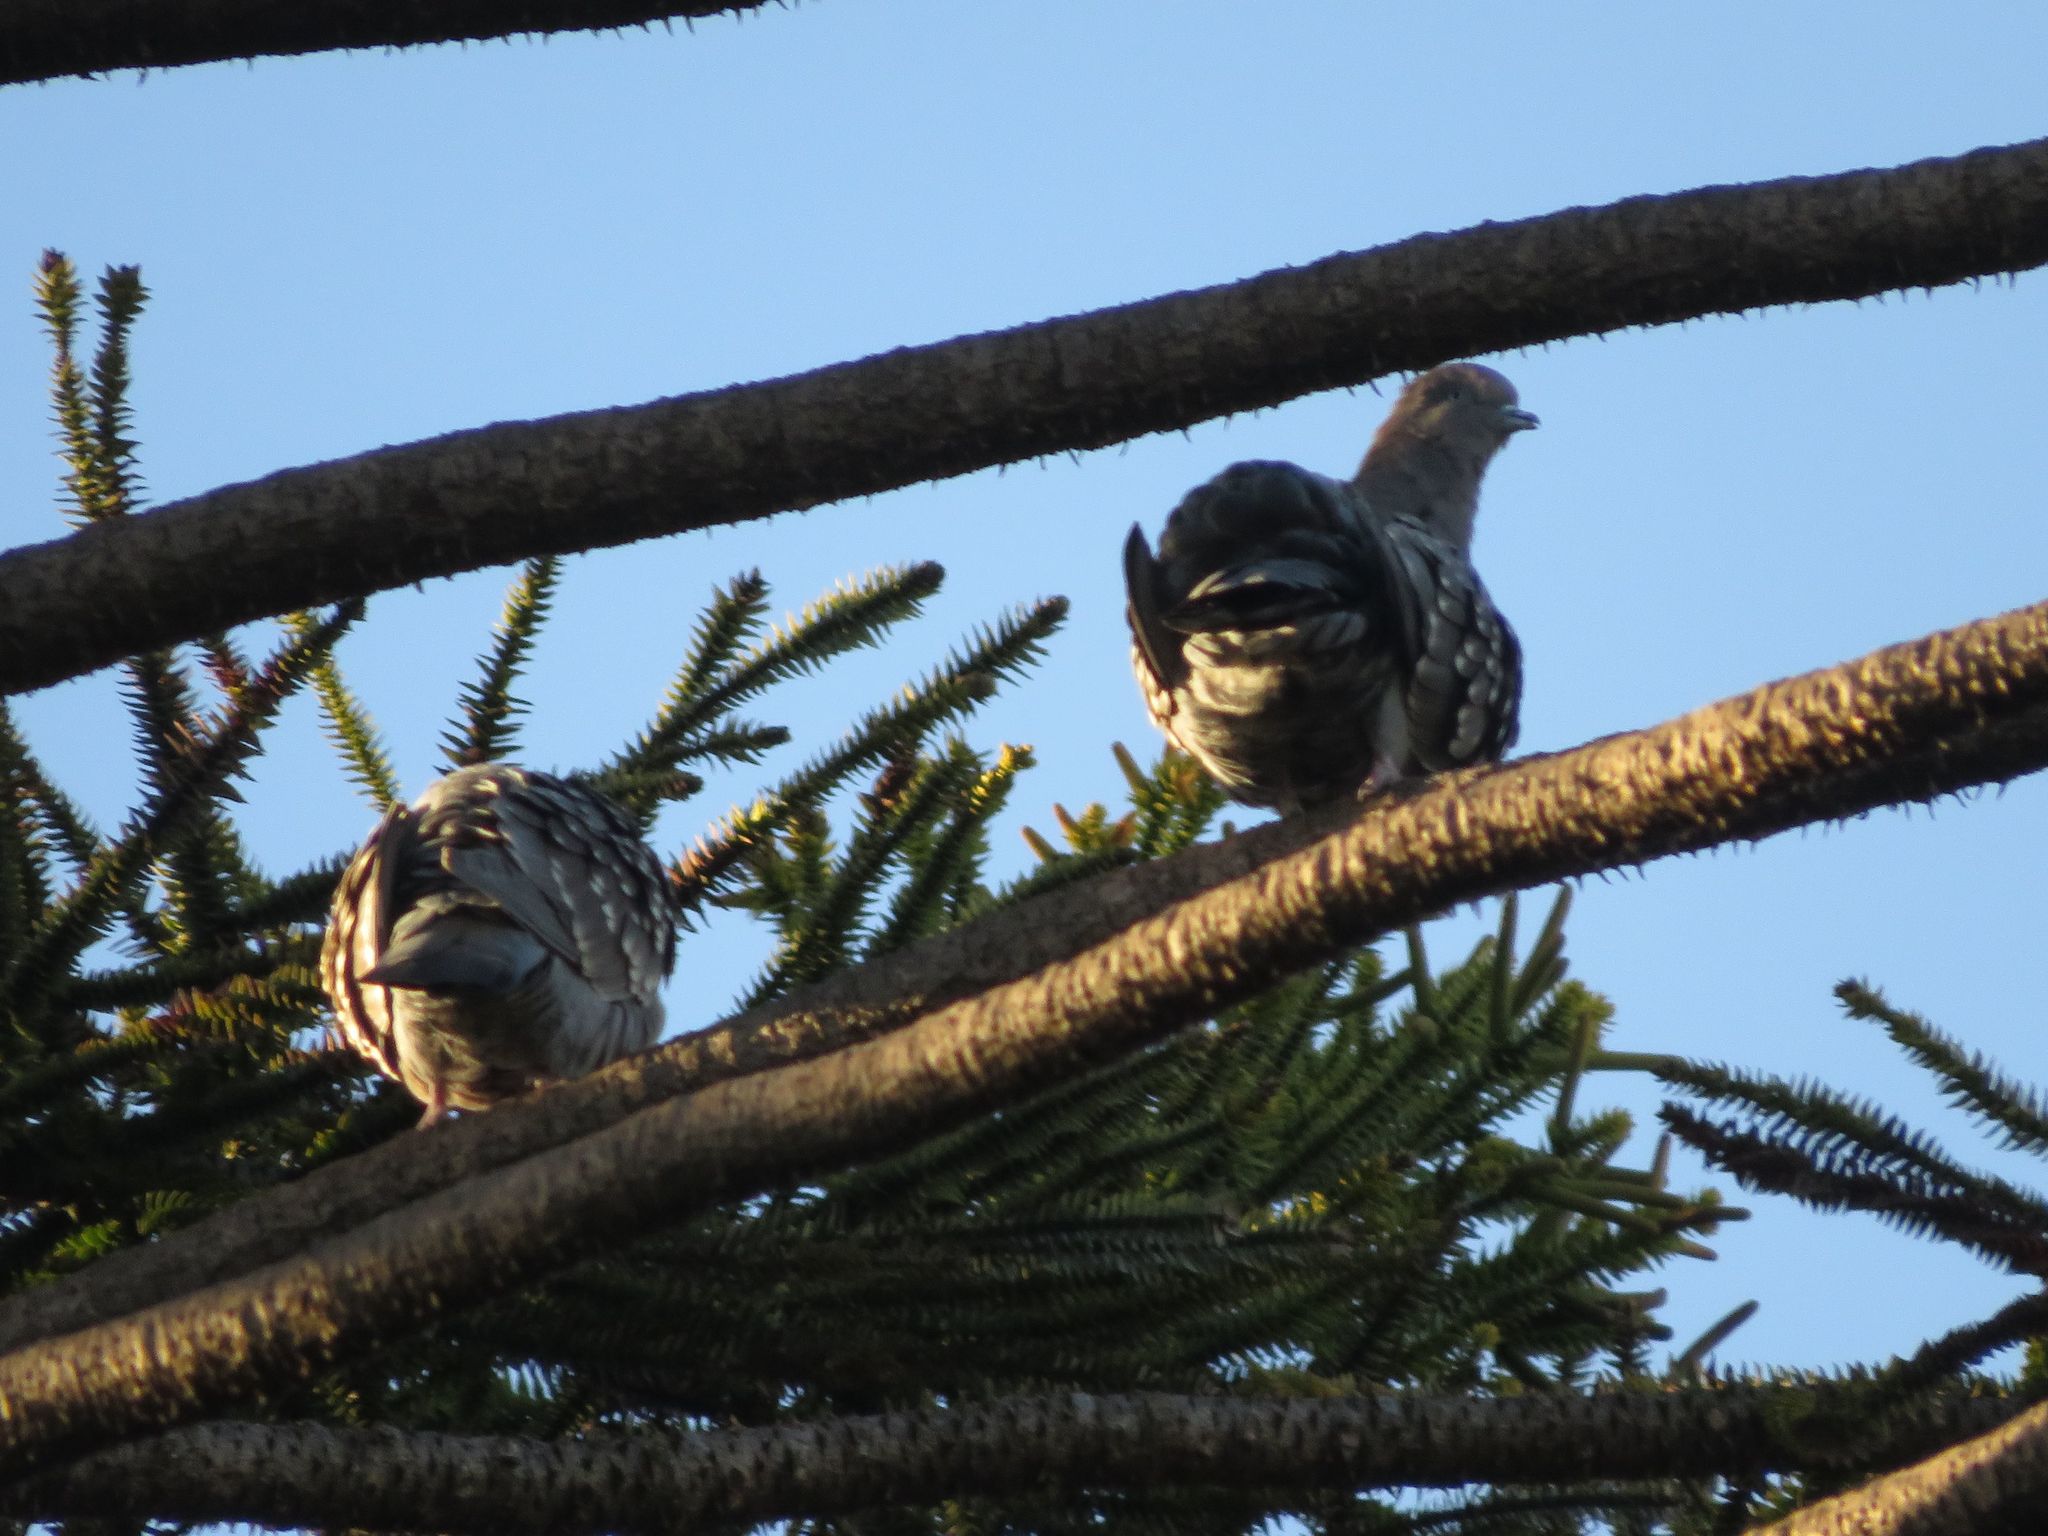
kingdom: Animalia
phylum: Chordata
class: Aves
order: Columbiformes
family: Columbidae
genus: Patagioenas
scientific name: Patagioenas maculosa
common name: Spot-winged pigeon
